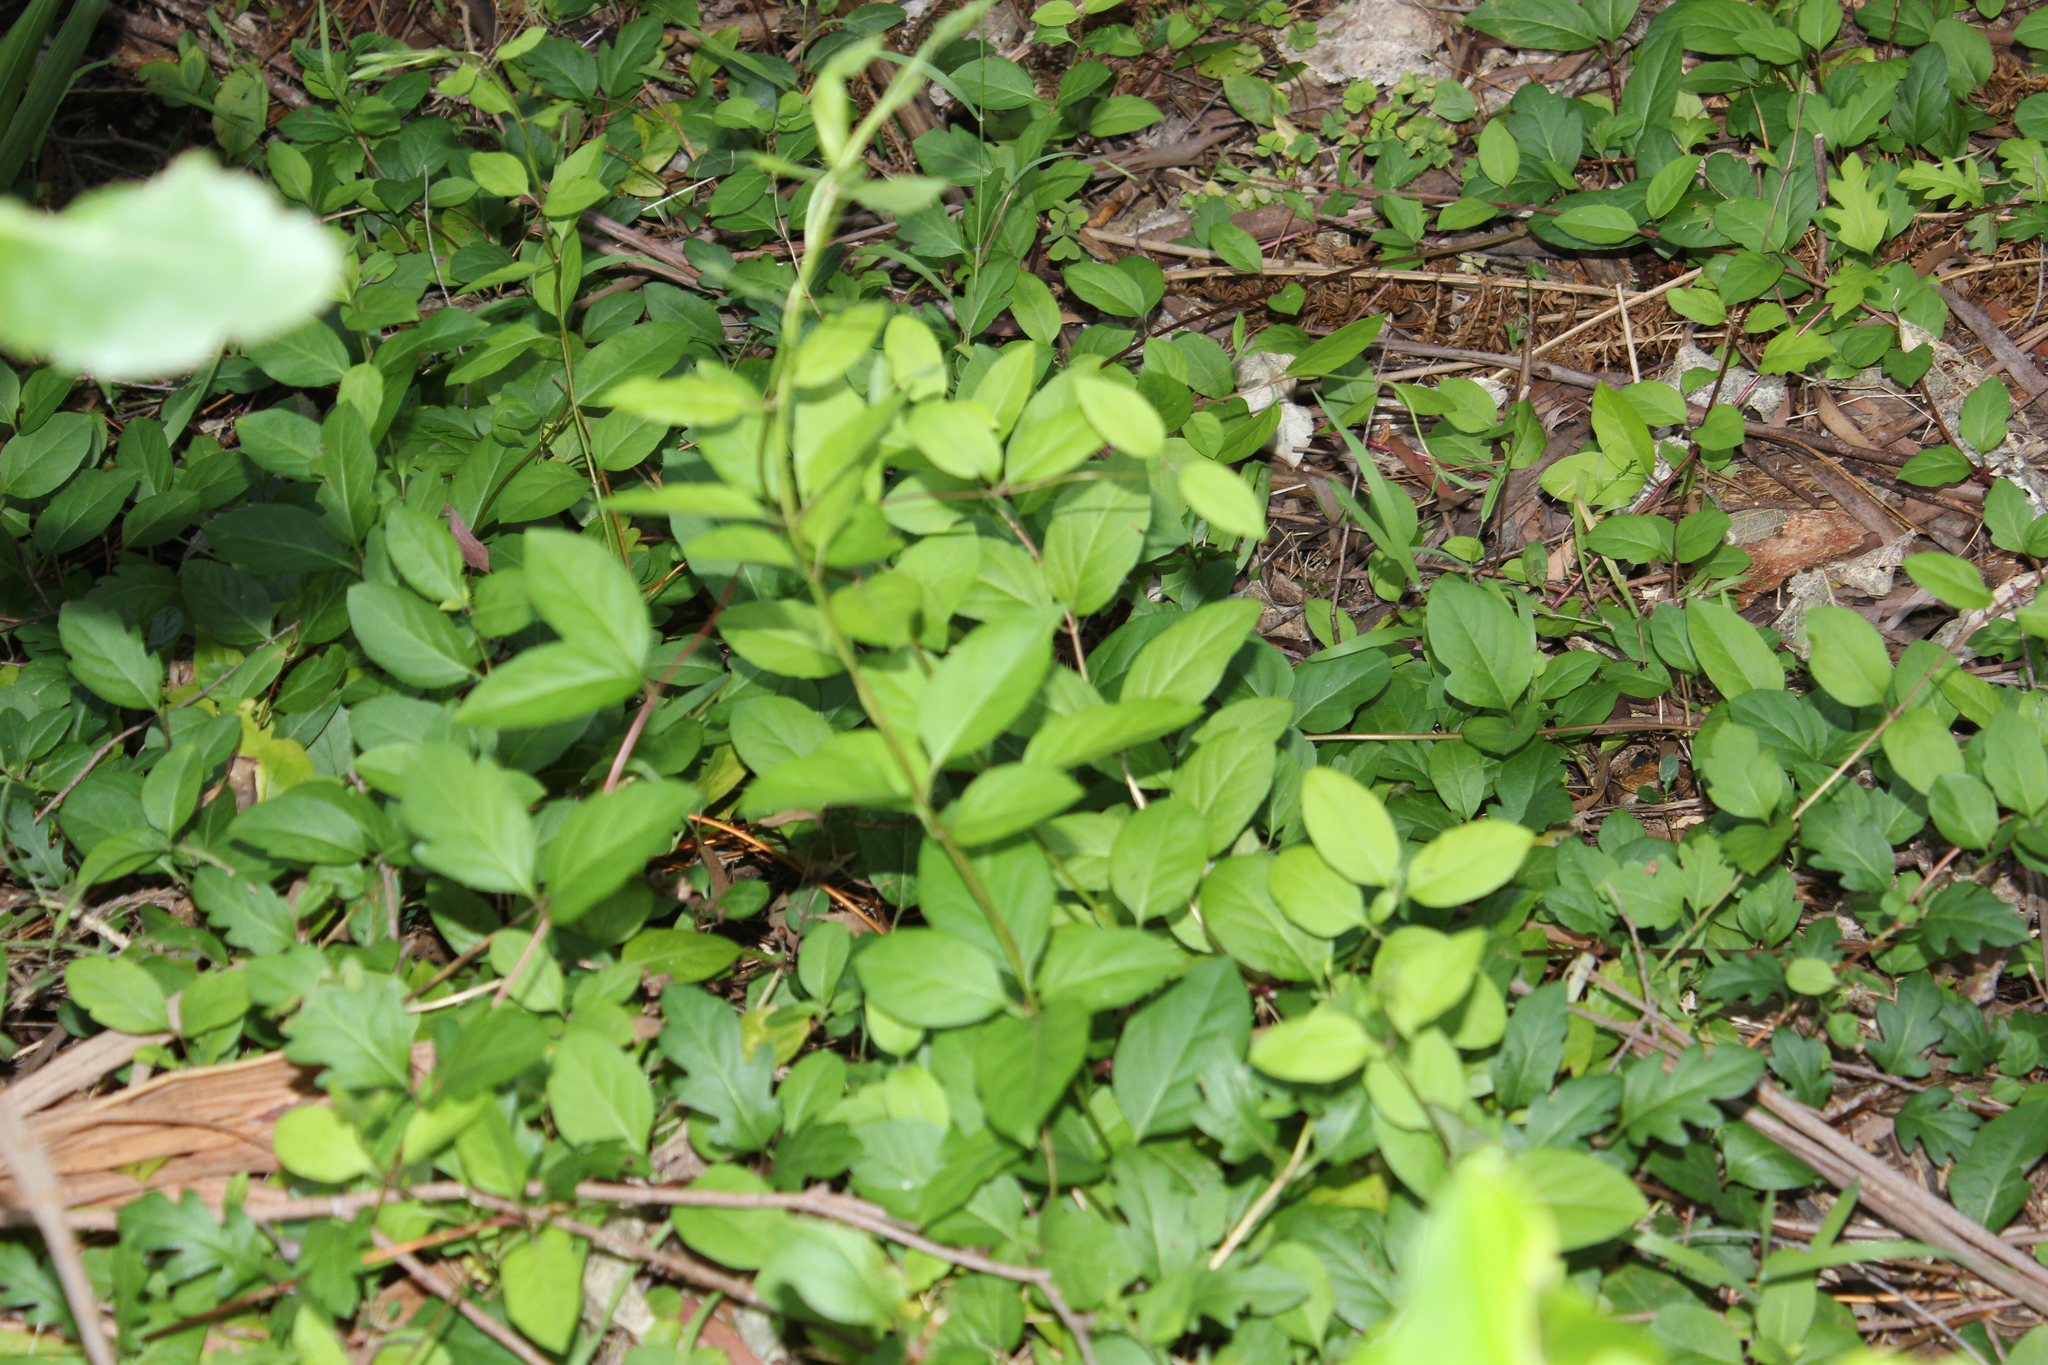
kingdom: Plantae
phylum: Tracheophyta
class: Magnoliopsida
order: Dipsacales
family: Caprifoliaceae
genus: Lonicera
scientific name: Lonicera japonica
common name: Japanese honeysuckle
